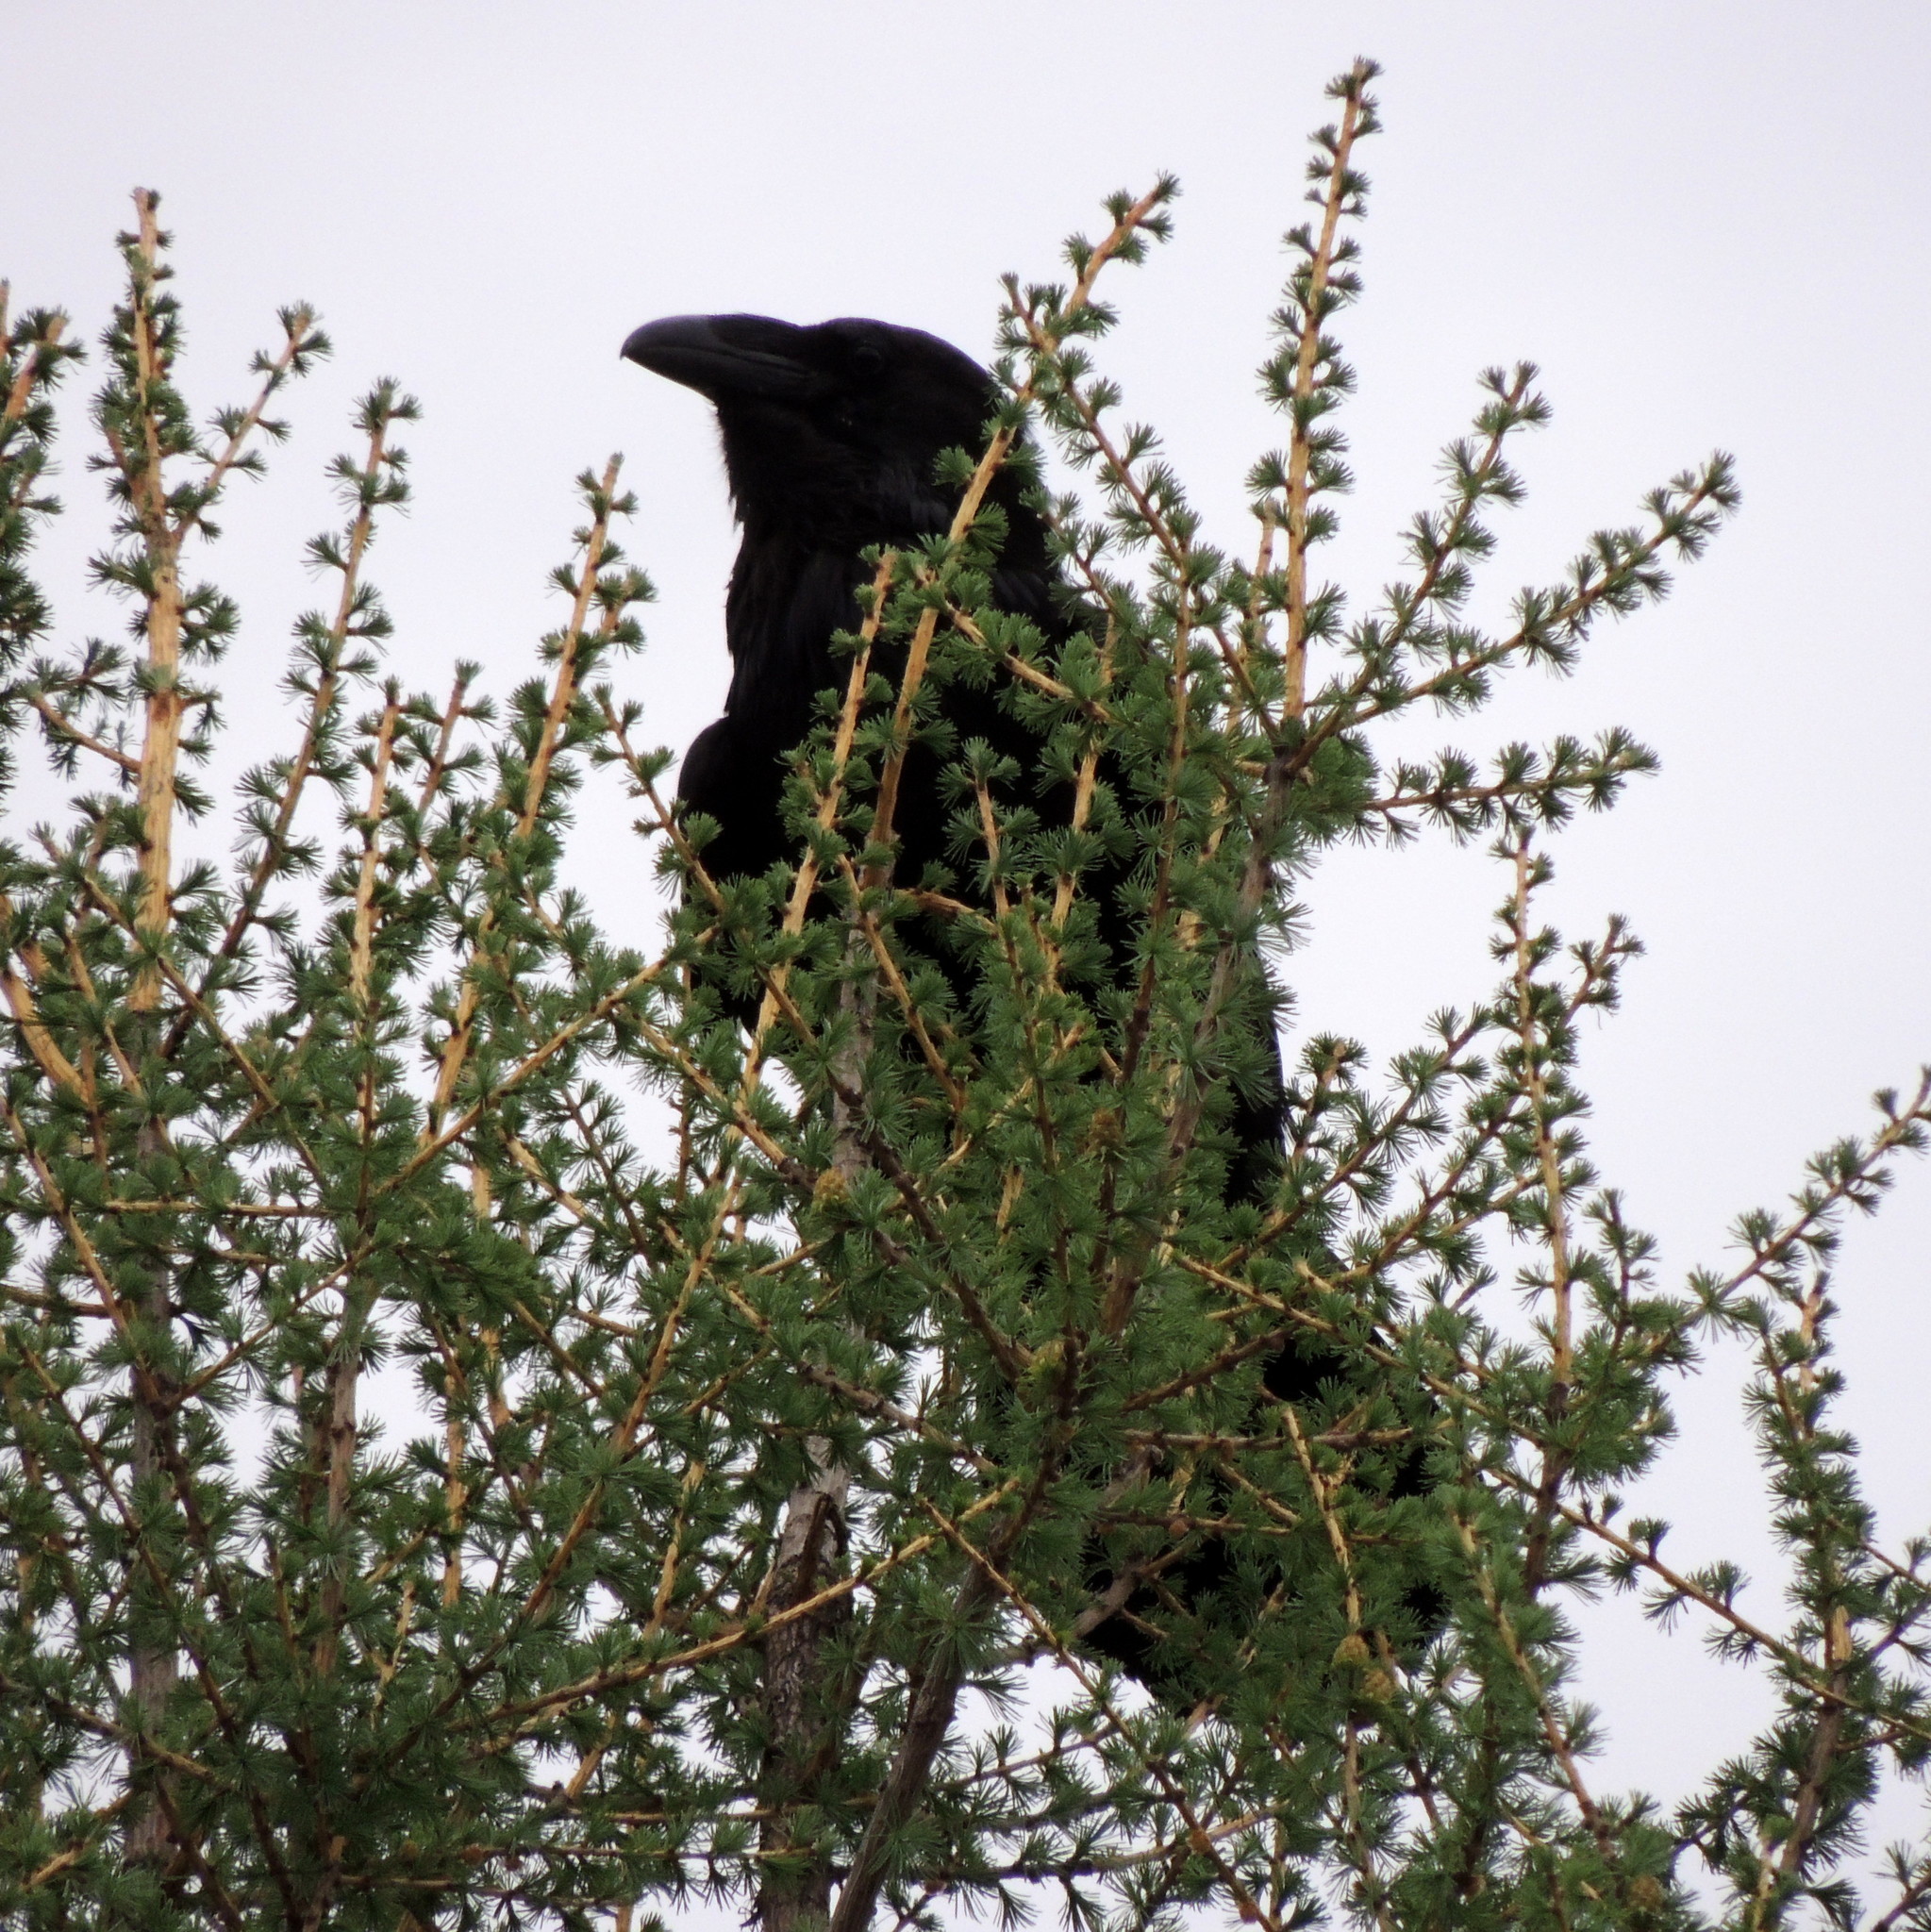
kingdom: Animalia
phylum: Chordata
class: Aves
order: Passeriformes
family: Corvidae
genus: Corvus
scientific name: Corvus corax
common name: Common raven
